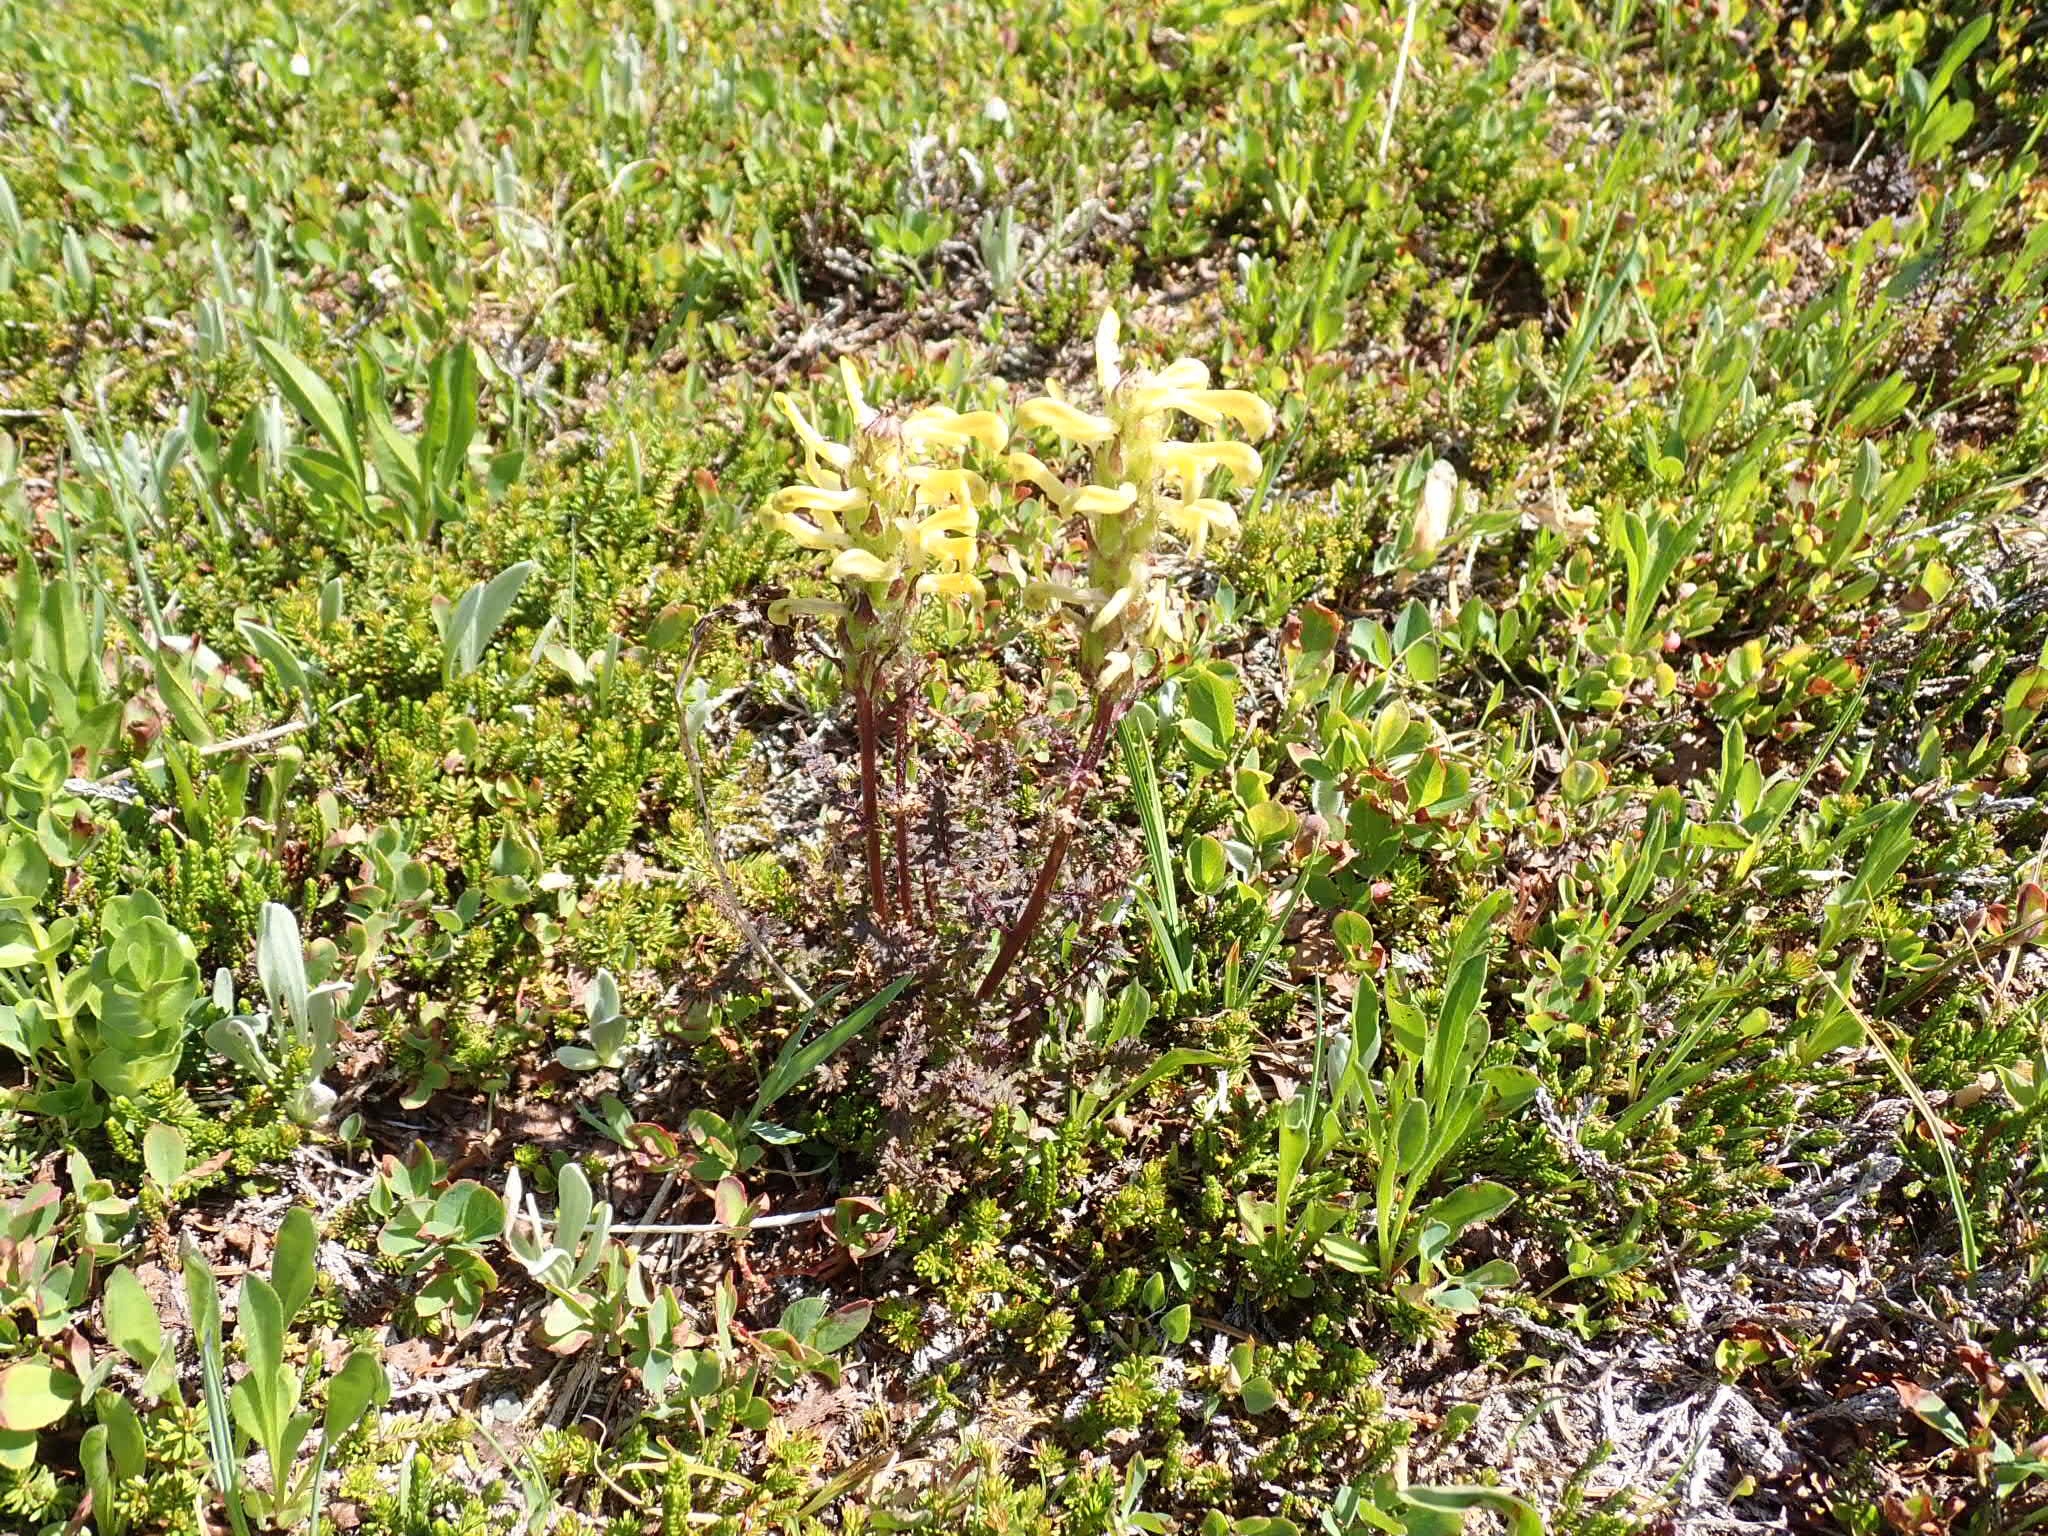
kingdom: Plantae
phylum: Tracheophyta
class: Magnoliopsida
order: Lamiales
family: Orobanchaceae
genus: Pedicularis
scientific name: Pedicularis rainierensis
